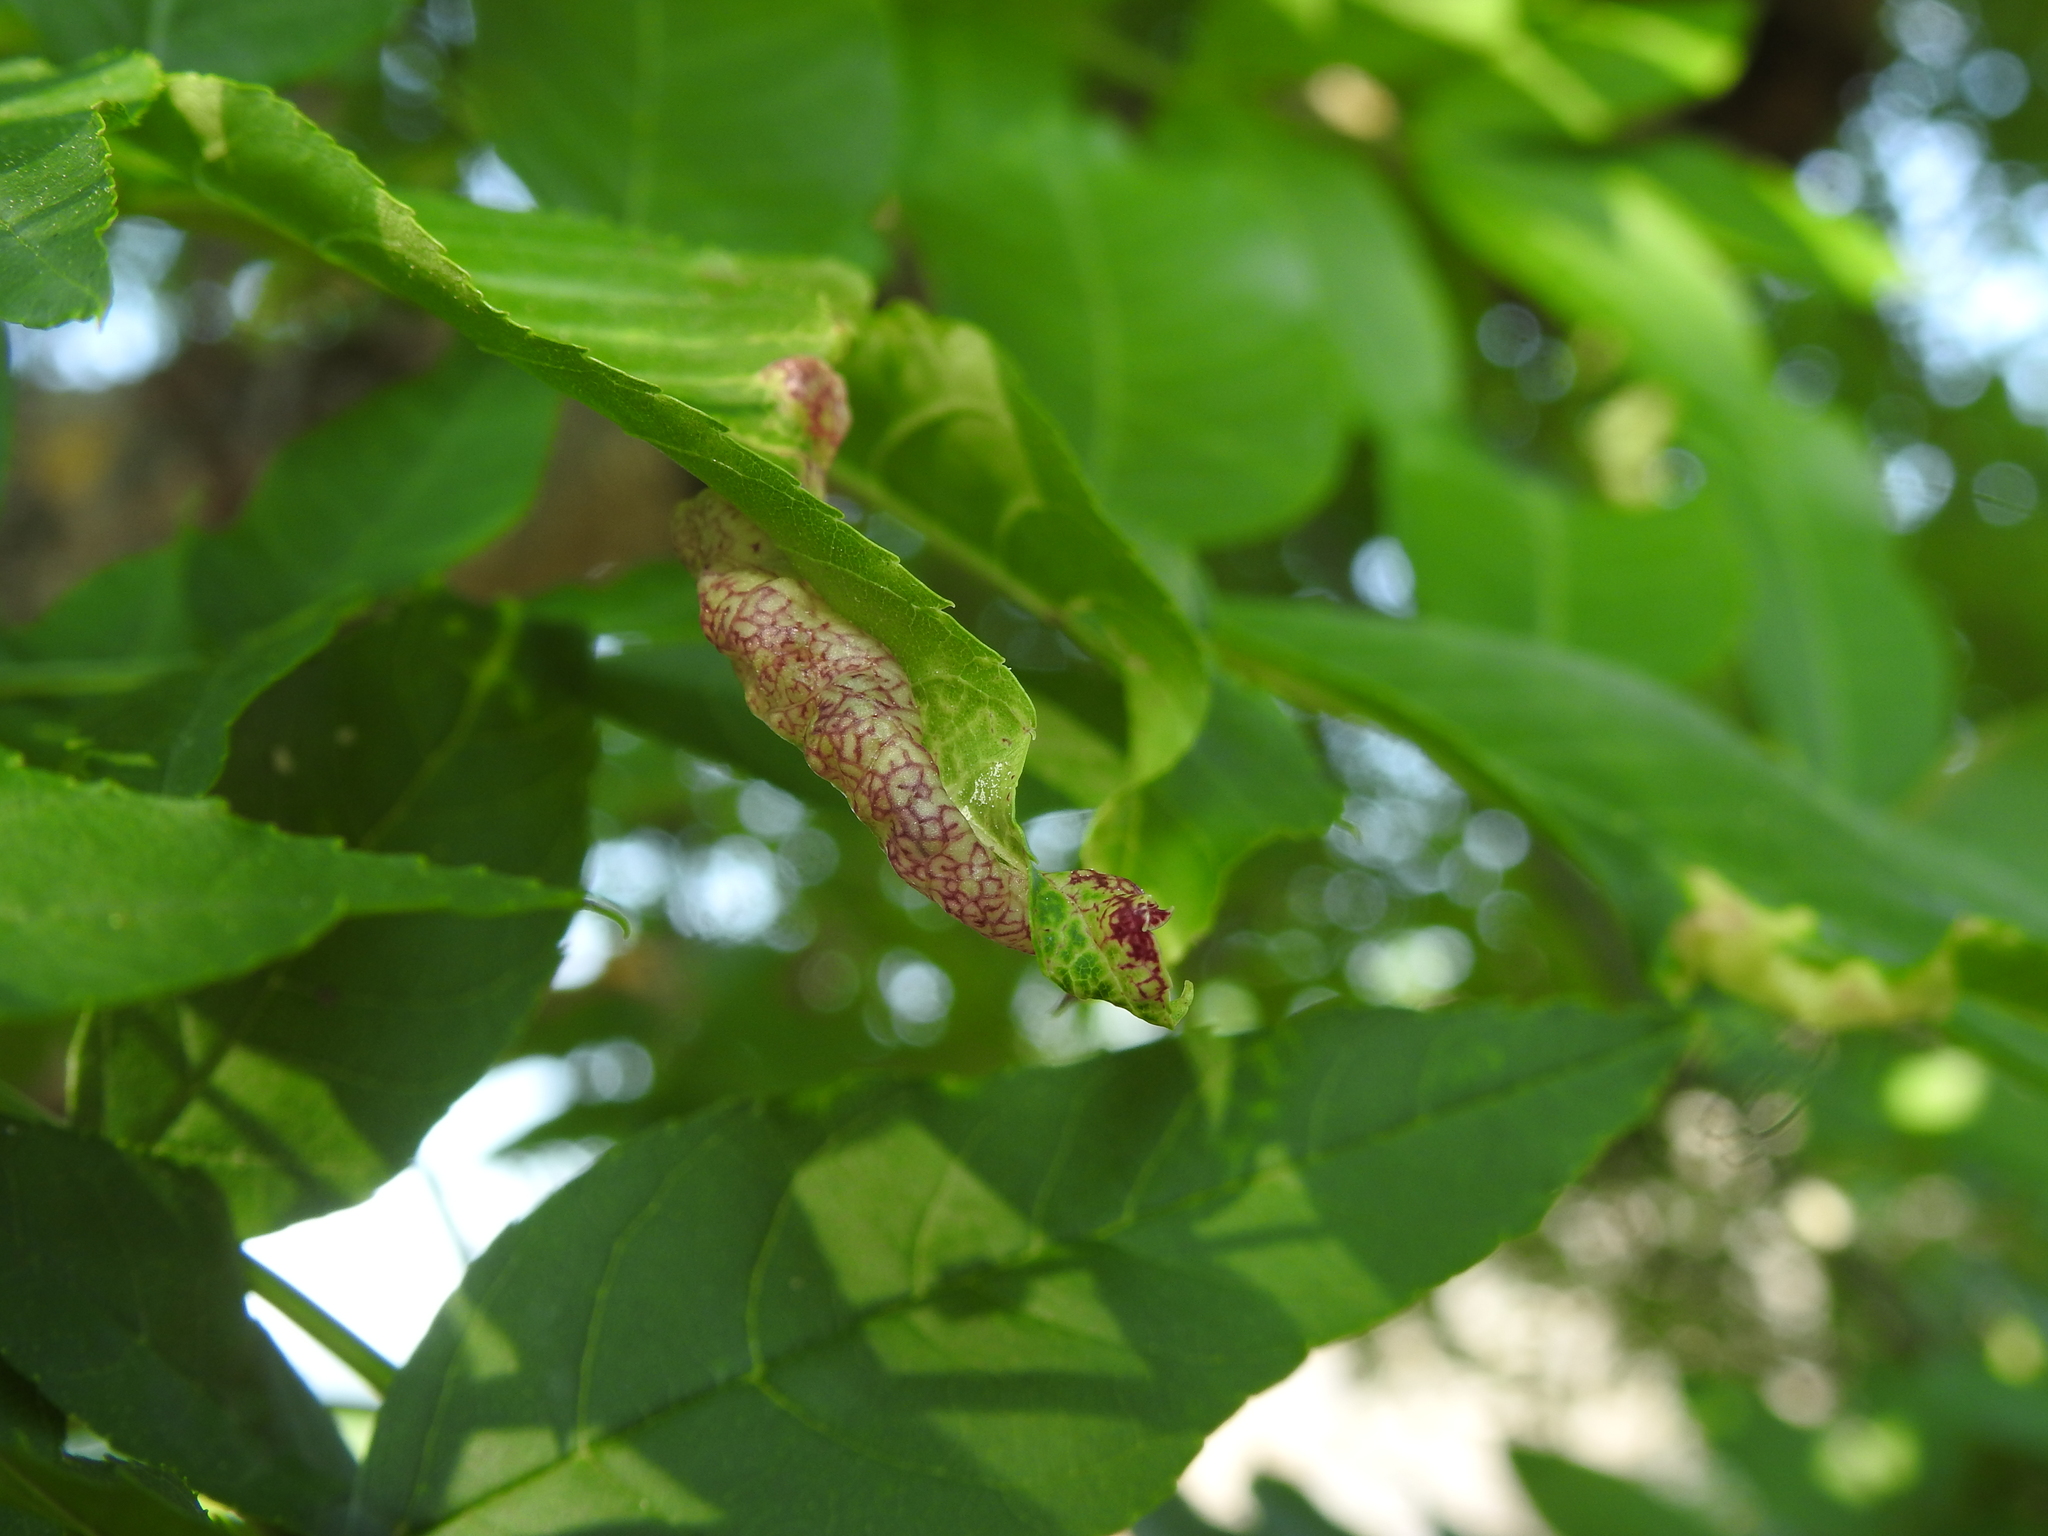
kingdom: Animalia
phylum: Arthropoda
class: Insecta
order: Hemiptera
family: Liviidae
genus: Psyllopsis
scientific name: Psyllopsis fraxini
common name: Jumping plant louse
